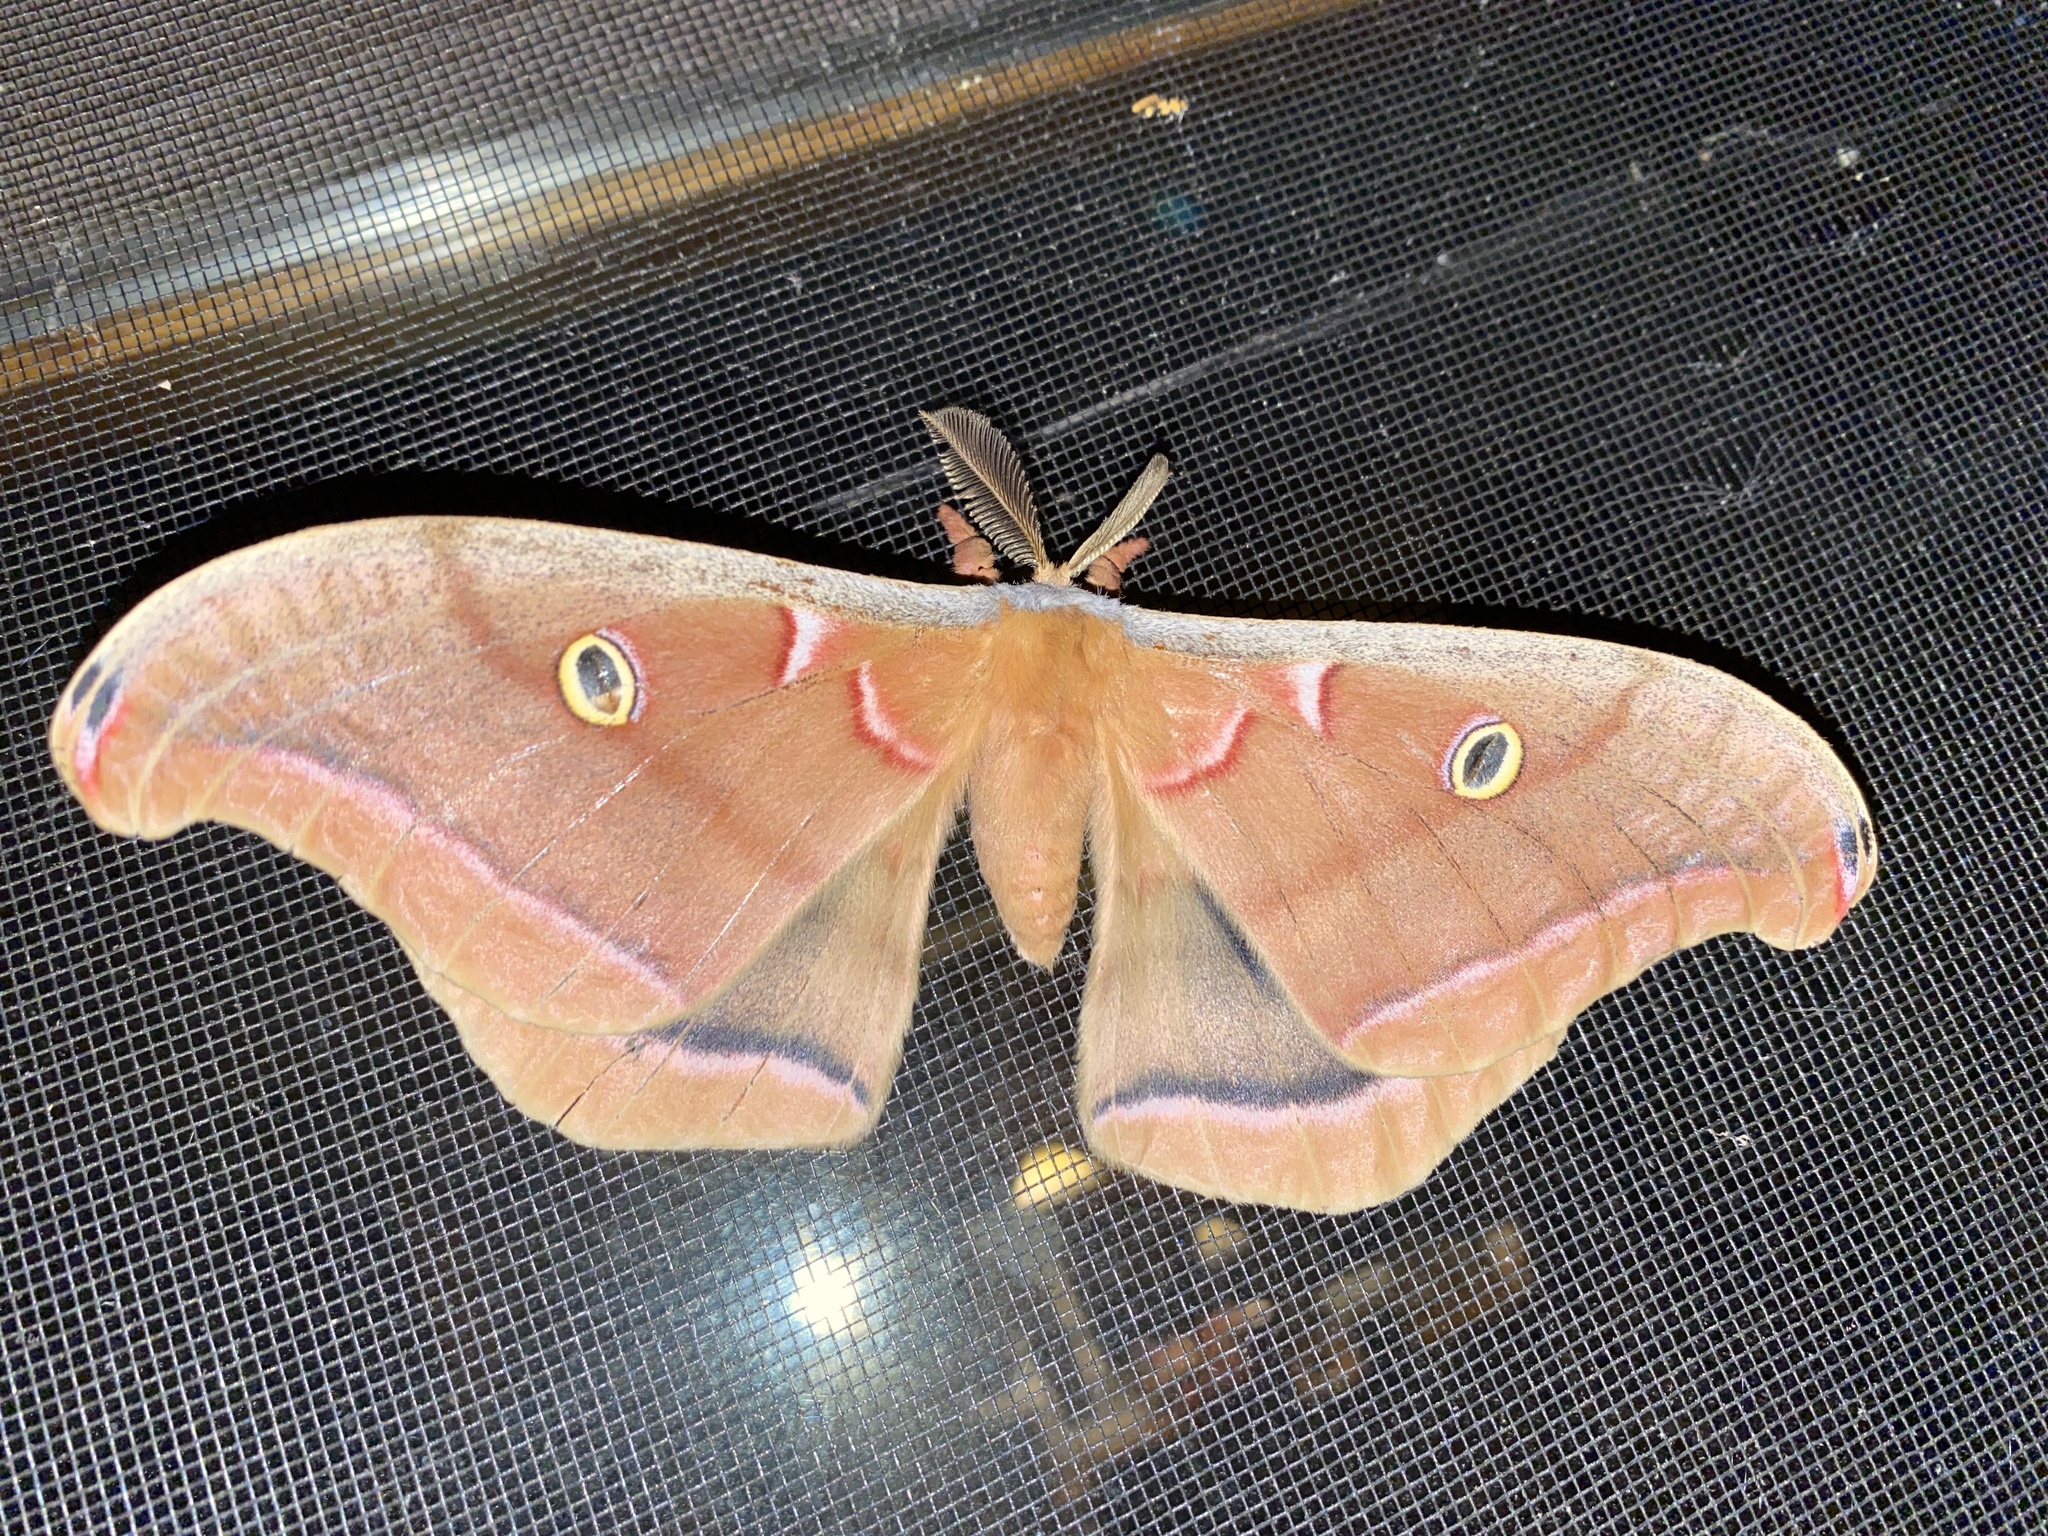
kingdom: Animalia
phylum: Arthropoda
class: Insecta
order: Lepidoptera
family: Saturniidae
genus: Antheraea
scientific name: Antheraea polyphemus
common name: Polyphemus moth
